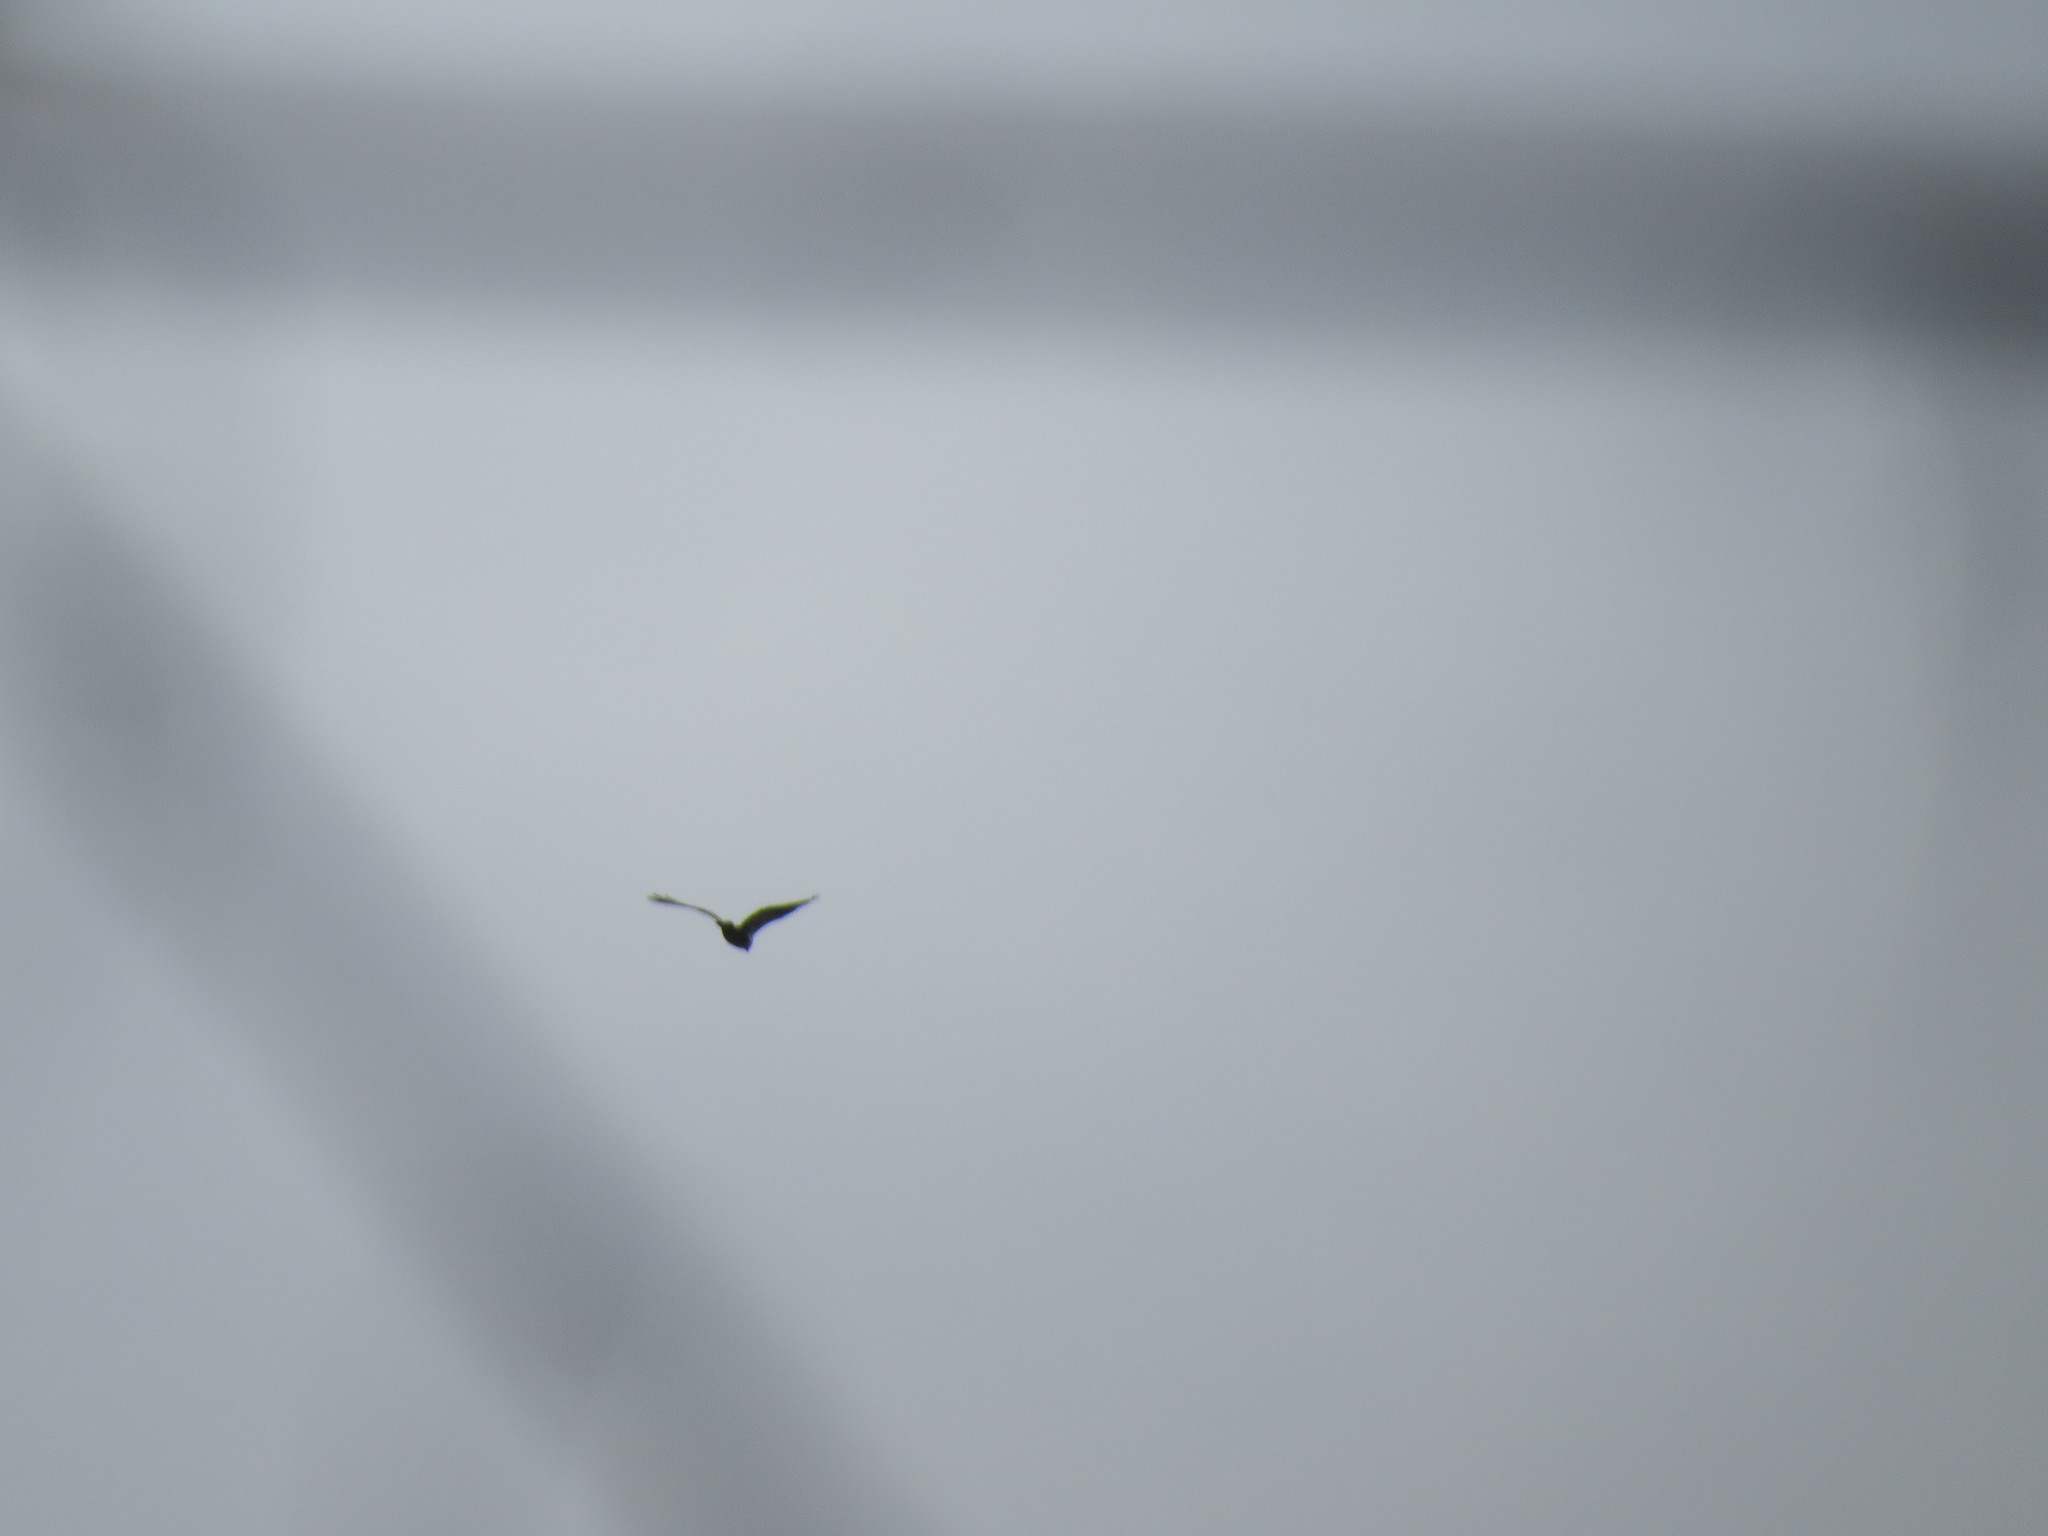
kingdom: Animalia
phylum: Chordata
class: Aves
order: Accipitriformes
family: Accipitridae
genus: Buteo
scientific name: Buteo lagopus
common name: Rough-legged buzzard
